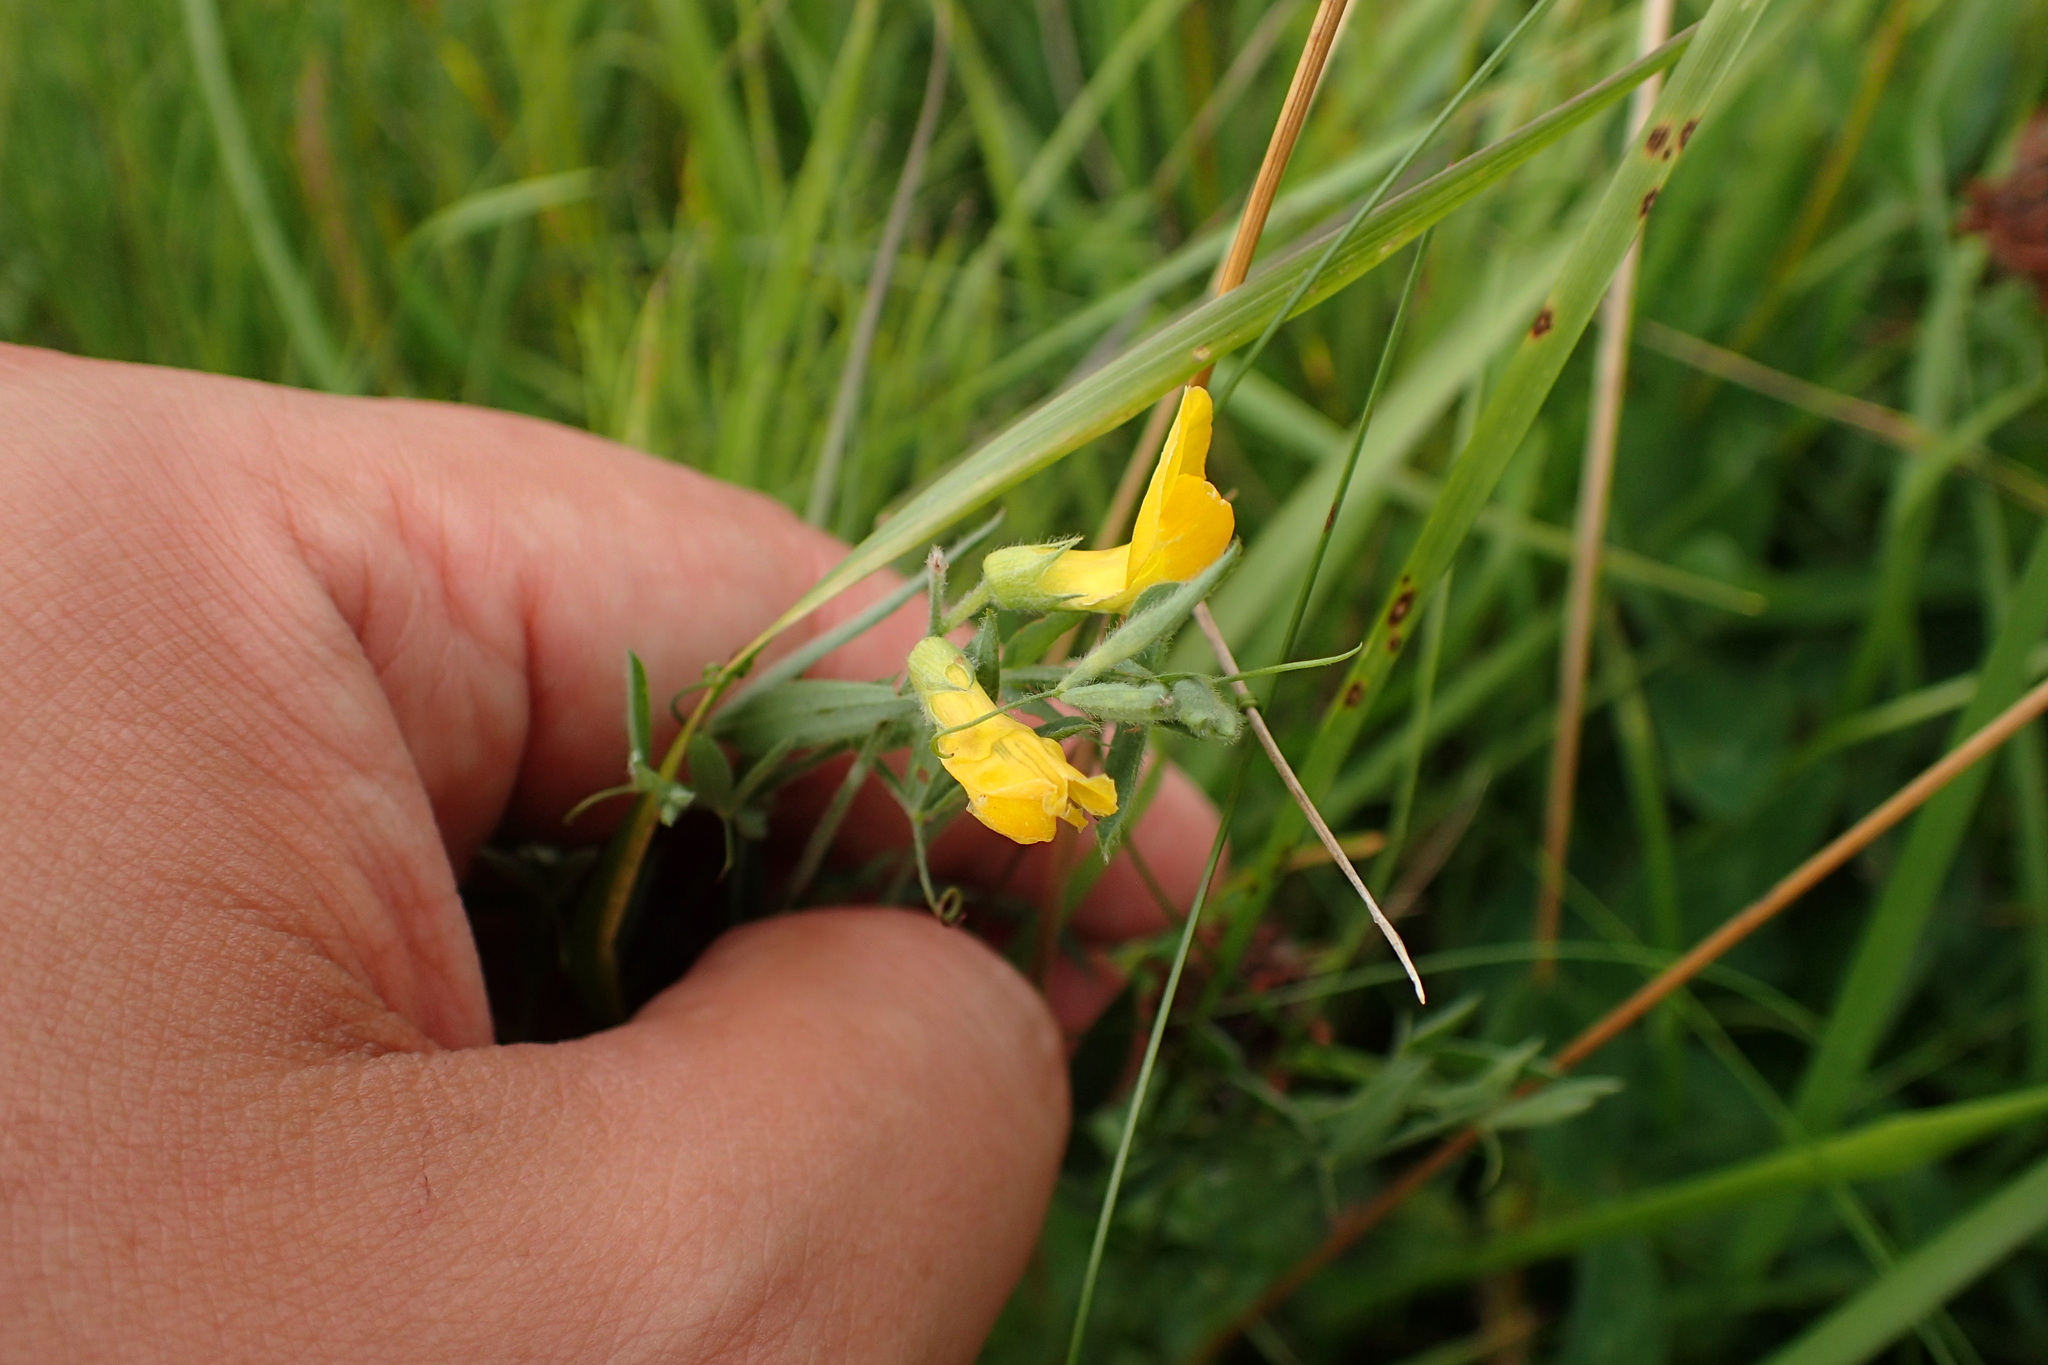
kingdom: Plantae
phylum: Tracheophyta
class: Magnoliopsida
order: Fabales
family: Fabaceae
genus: Lathyrus
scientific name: Lathyrus pratensis
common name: Meadow vetchling
